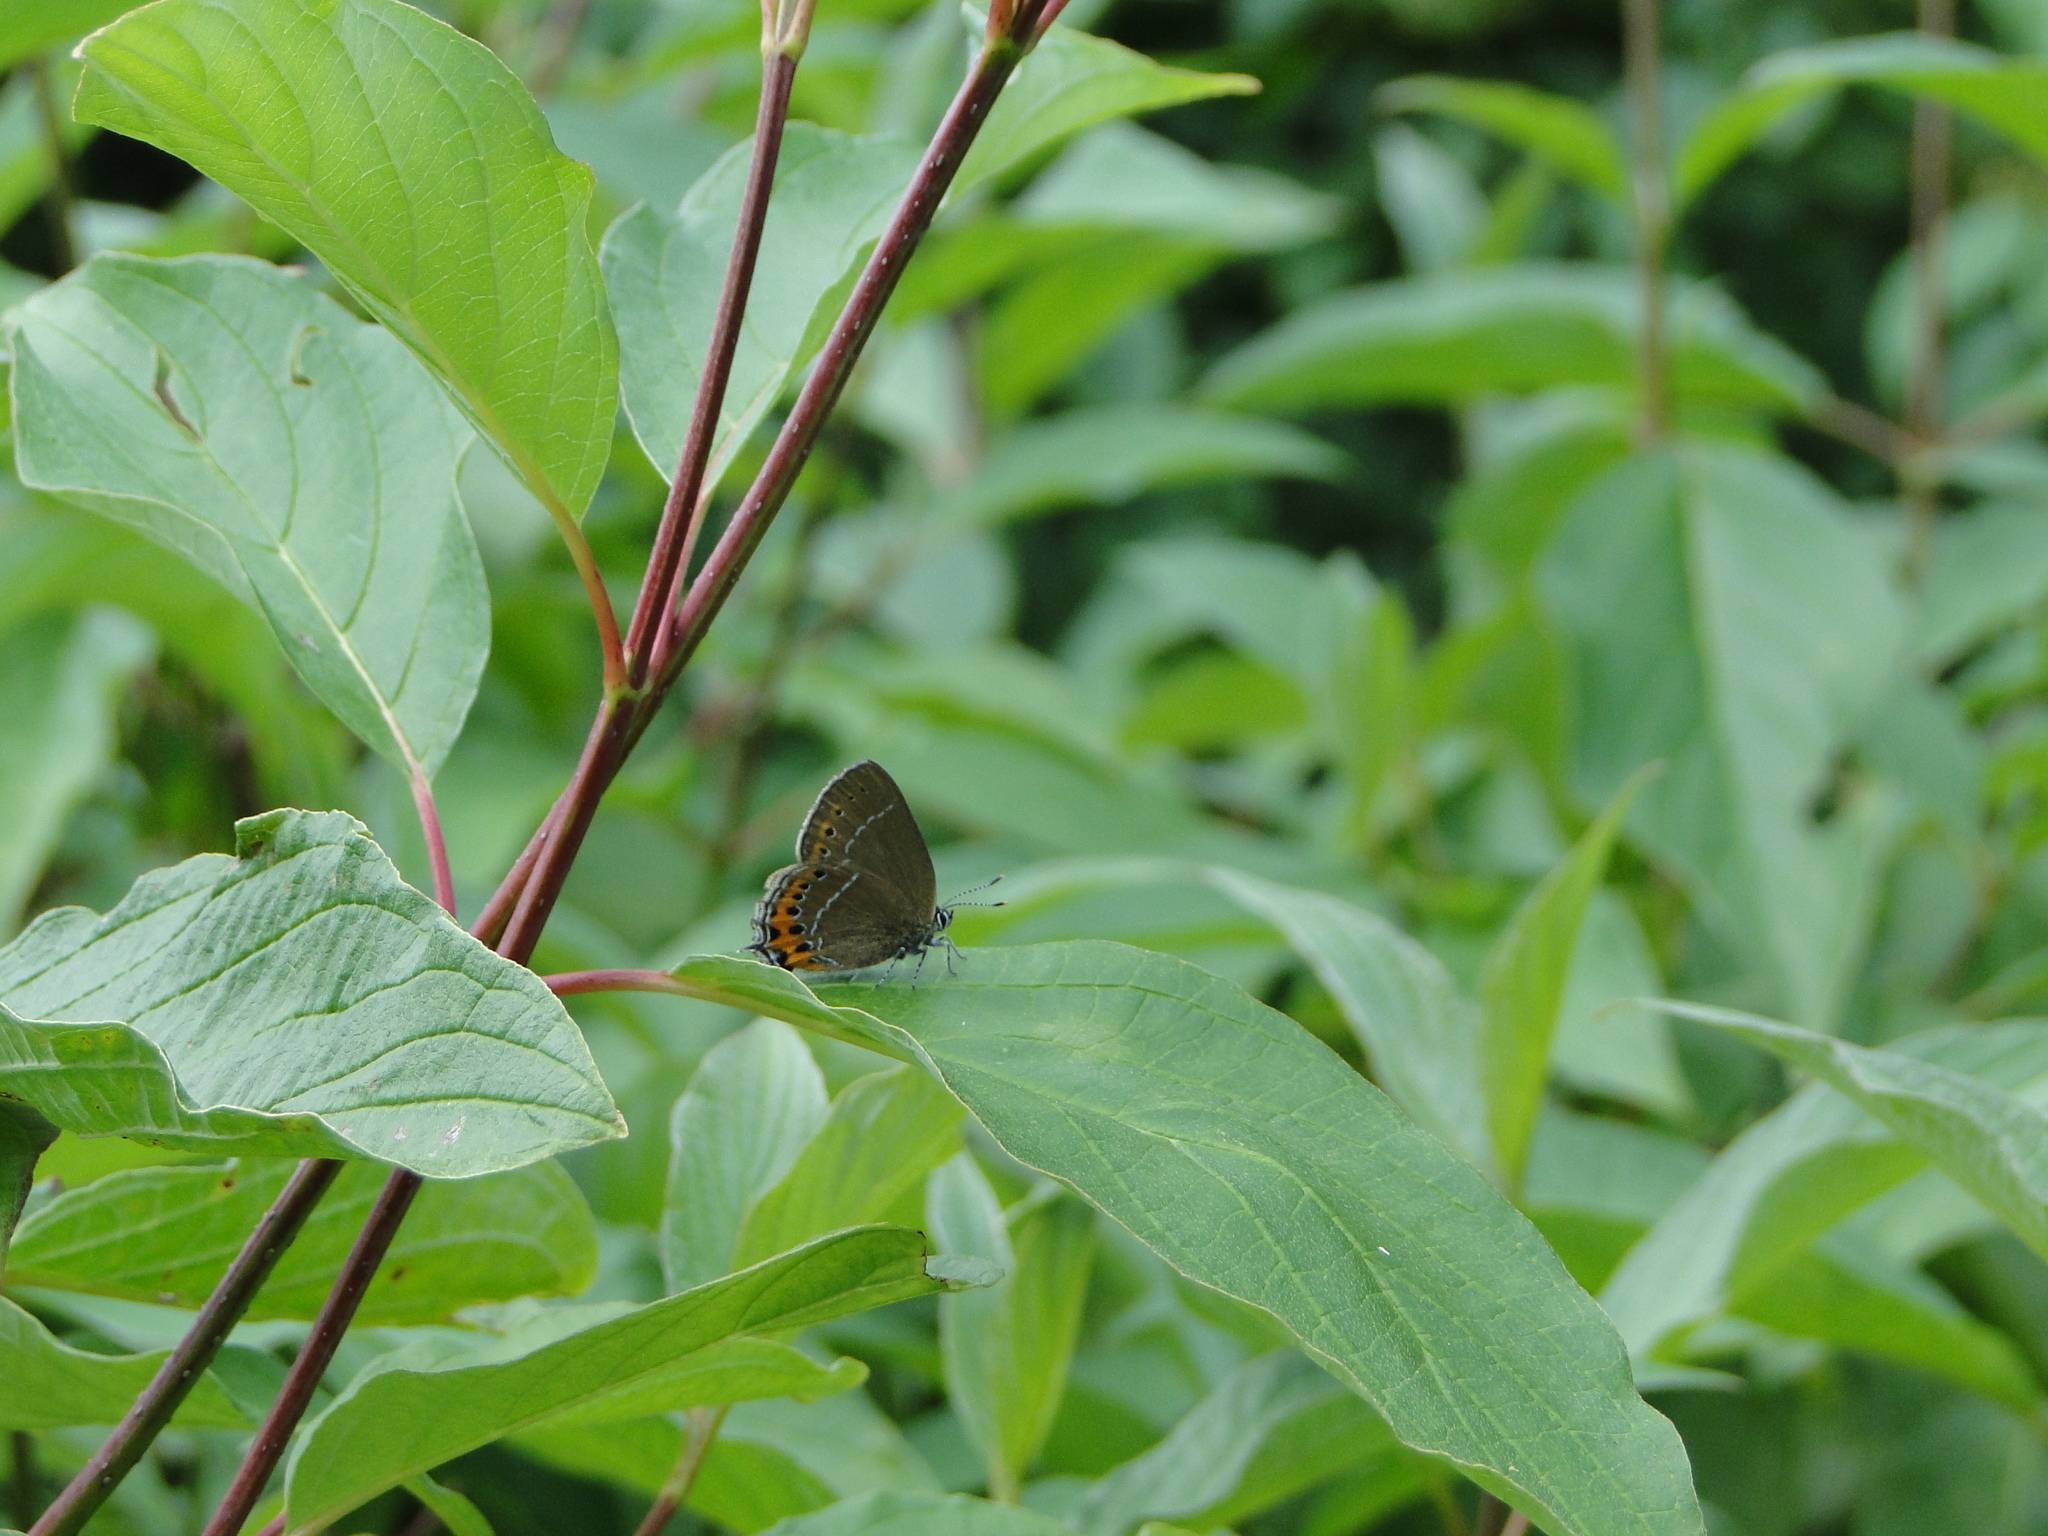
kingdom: Animalia
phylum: Arthropoda
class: Insecta
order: Lepidoptera
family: Lycaenidae
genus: Fixsenia
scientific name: Fixsenia pruni
